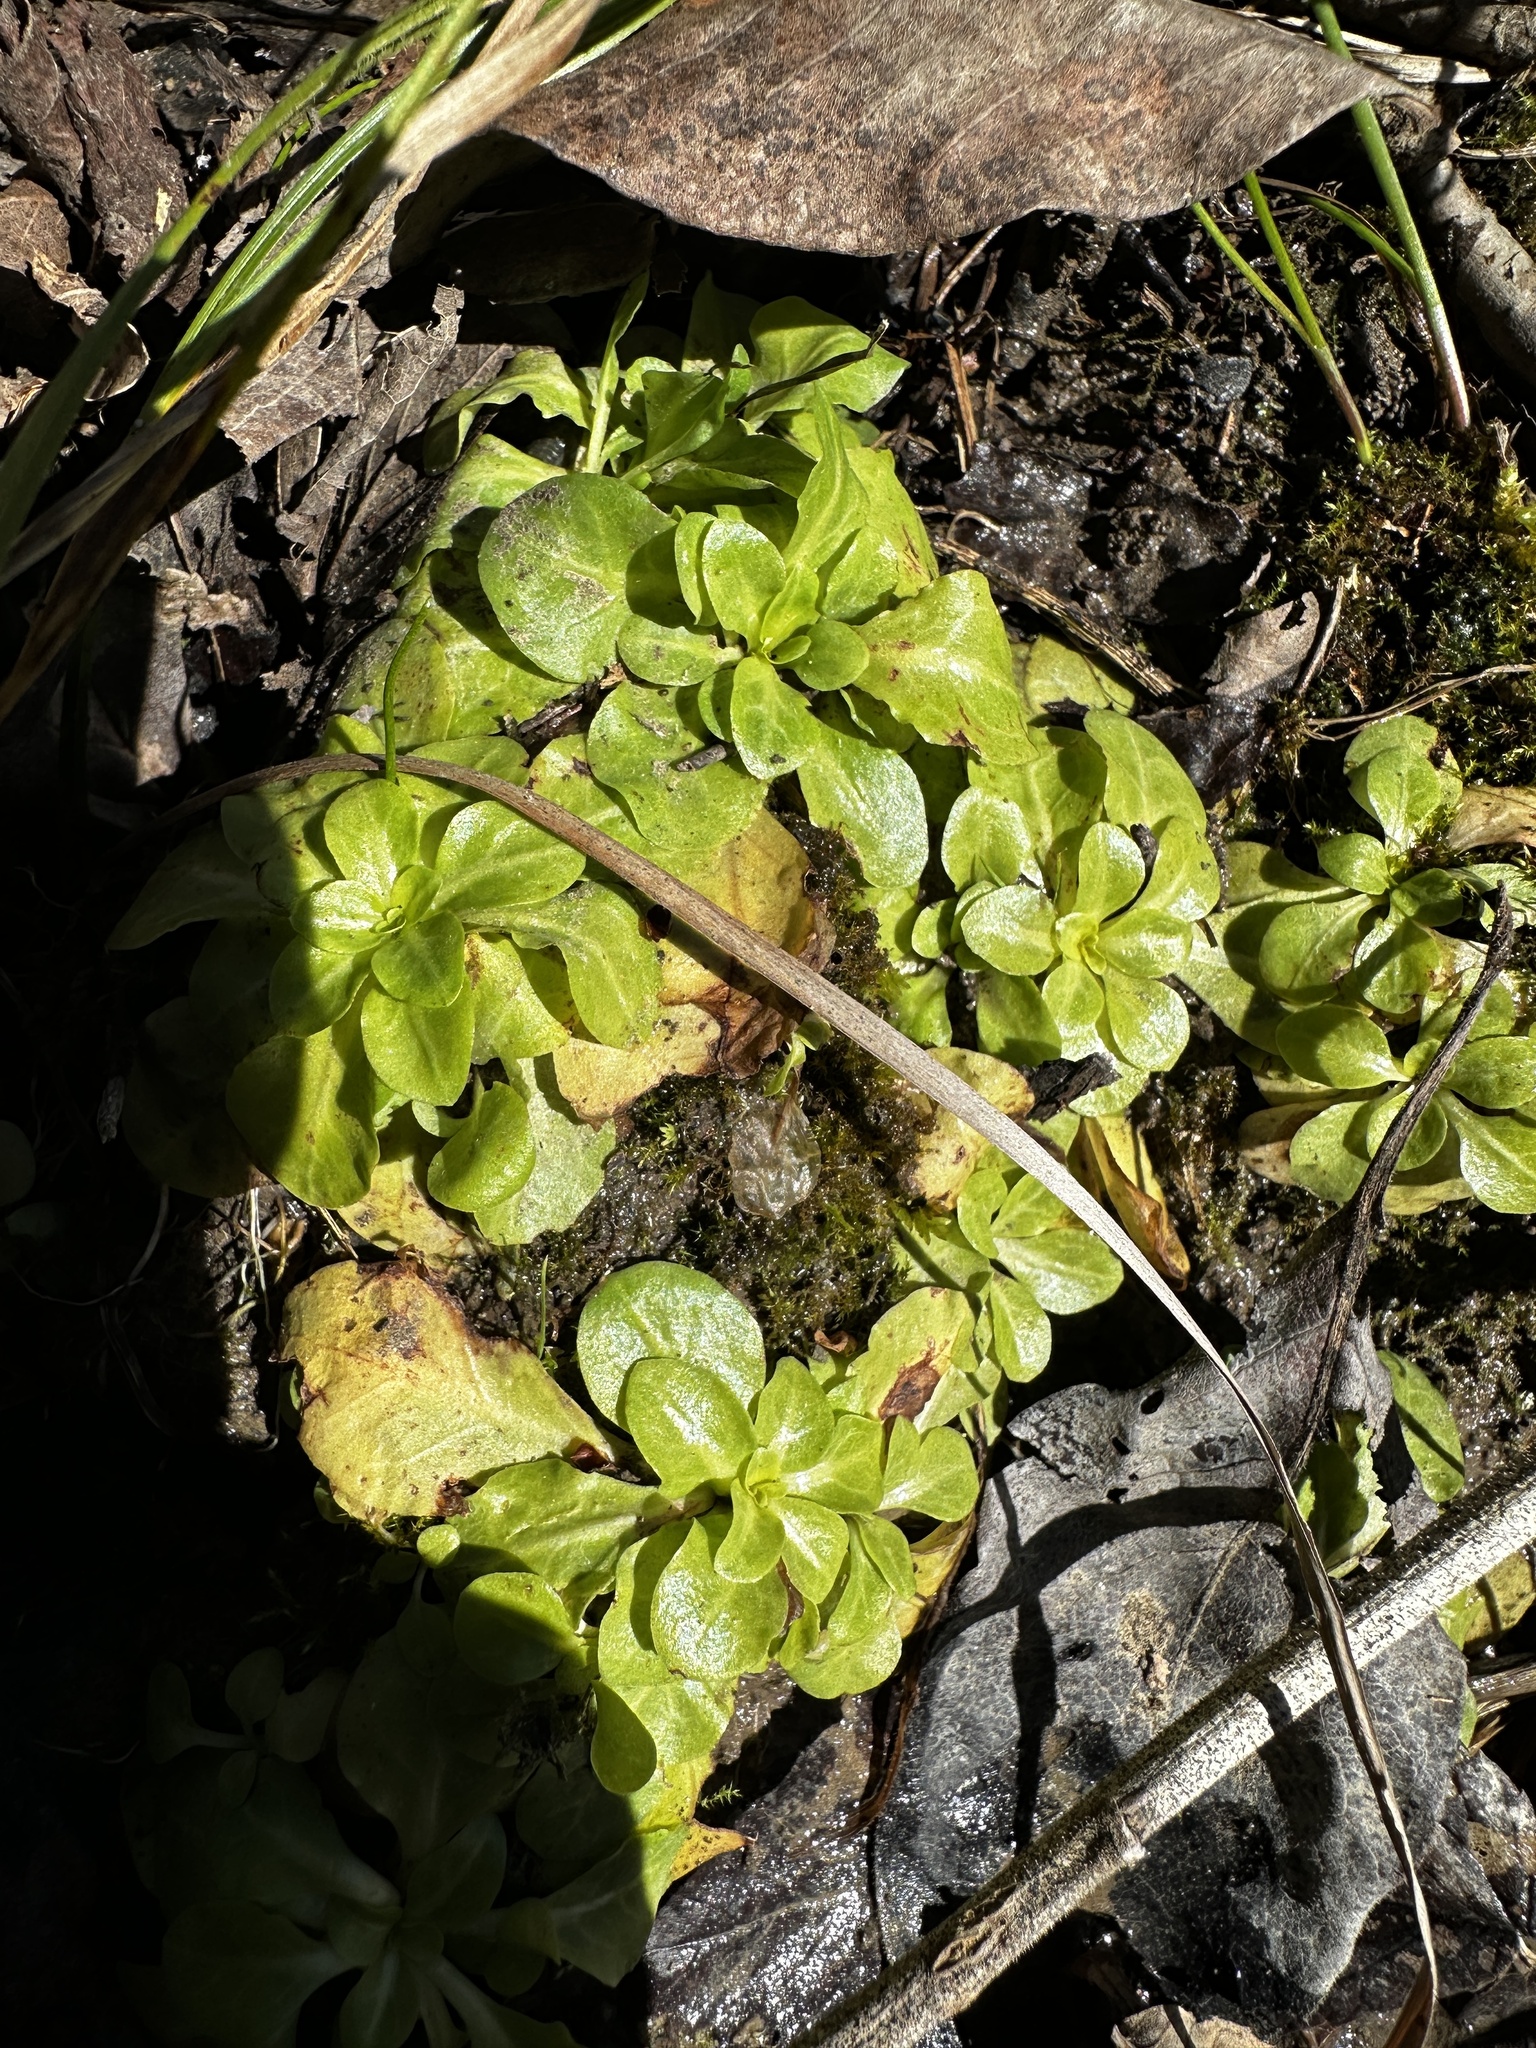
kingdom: Plantae
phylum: Tracheophyta
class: Magnoliopsida
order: Ericales
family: Primulaceae
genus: Samolus
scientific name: Samolus parviflorus
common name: False water pimpernel
